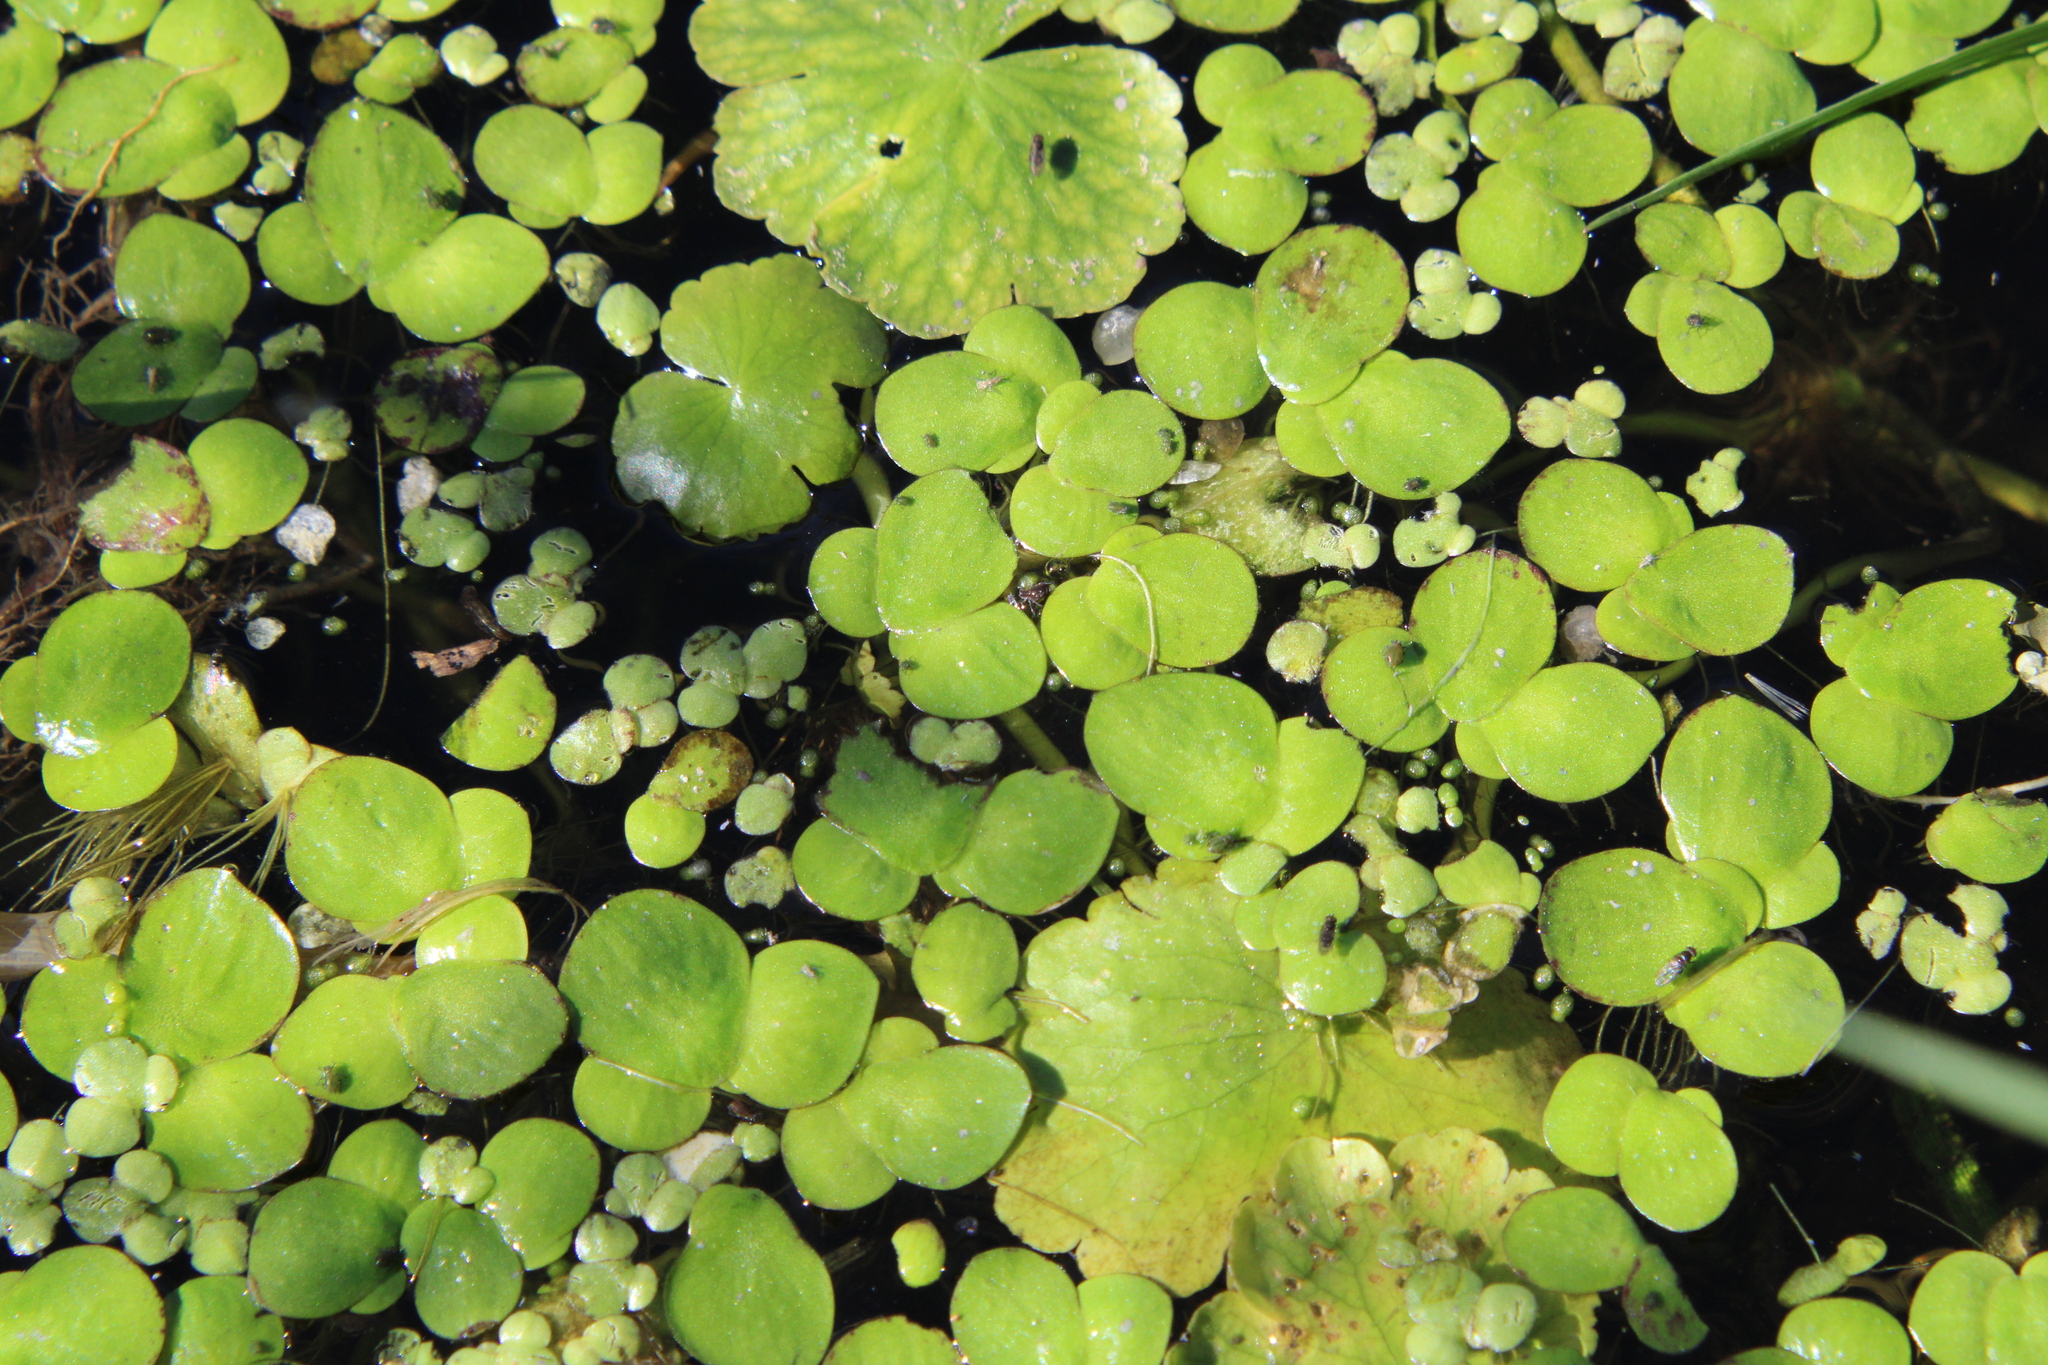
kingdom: Plantae
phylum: Tracheophyta
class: Liliopsida
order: Alismatales
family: Araceae
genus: Lemna
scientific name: Lemna minor
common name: Common duckweed
